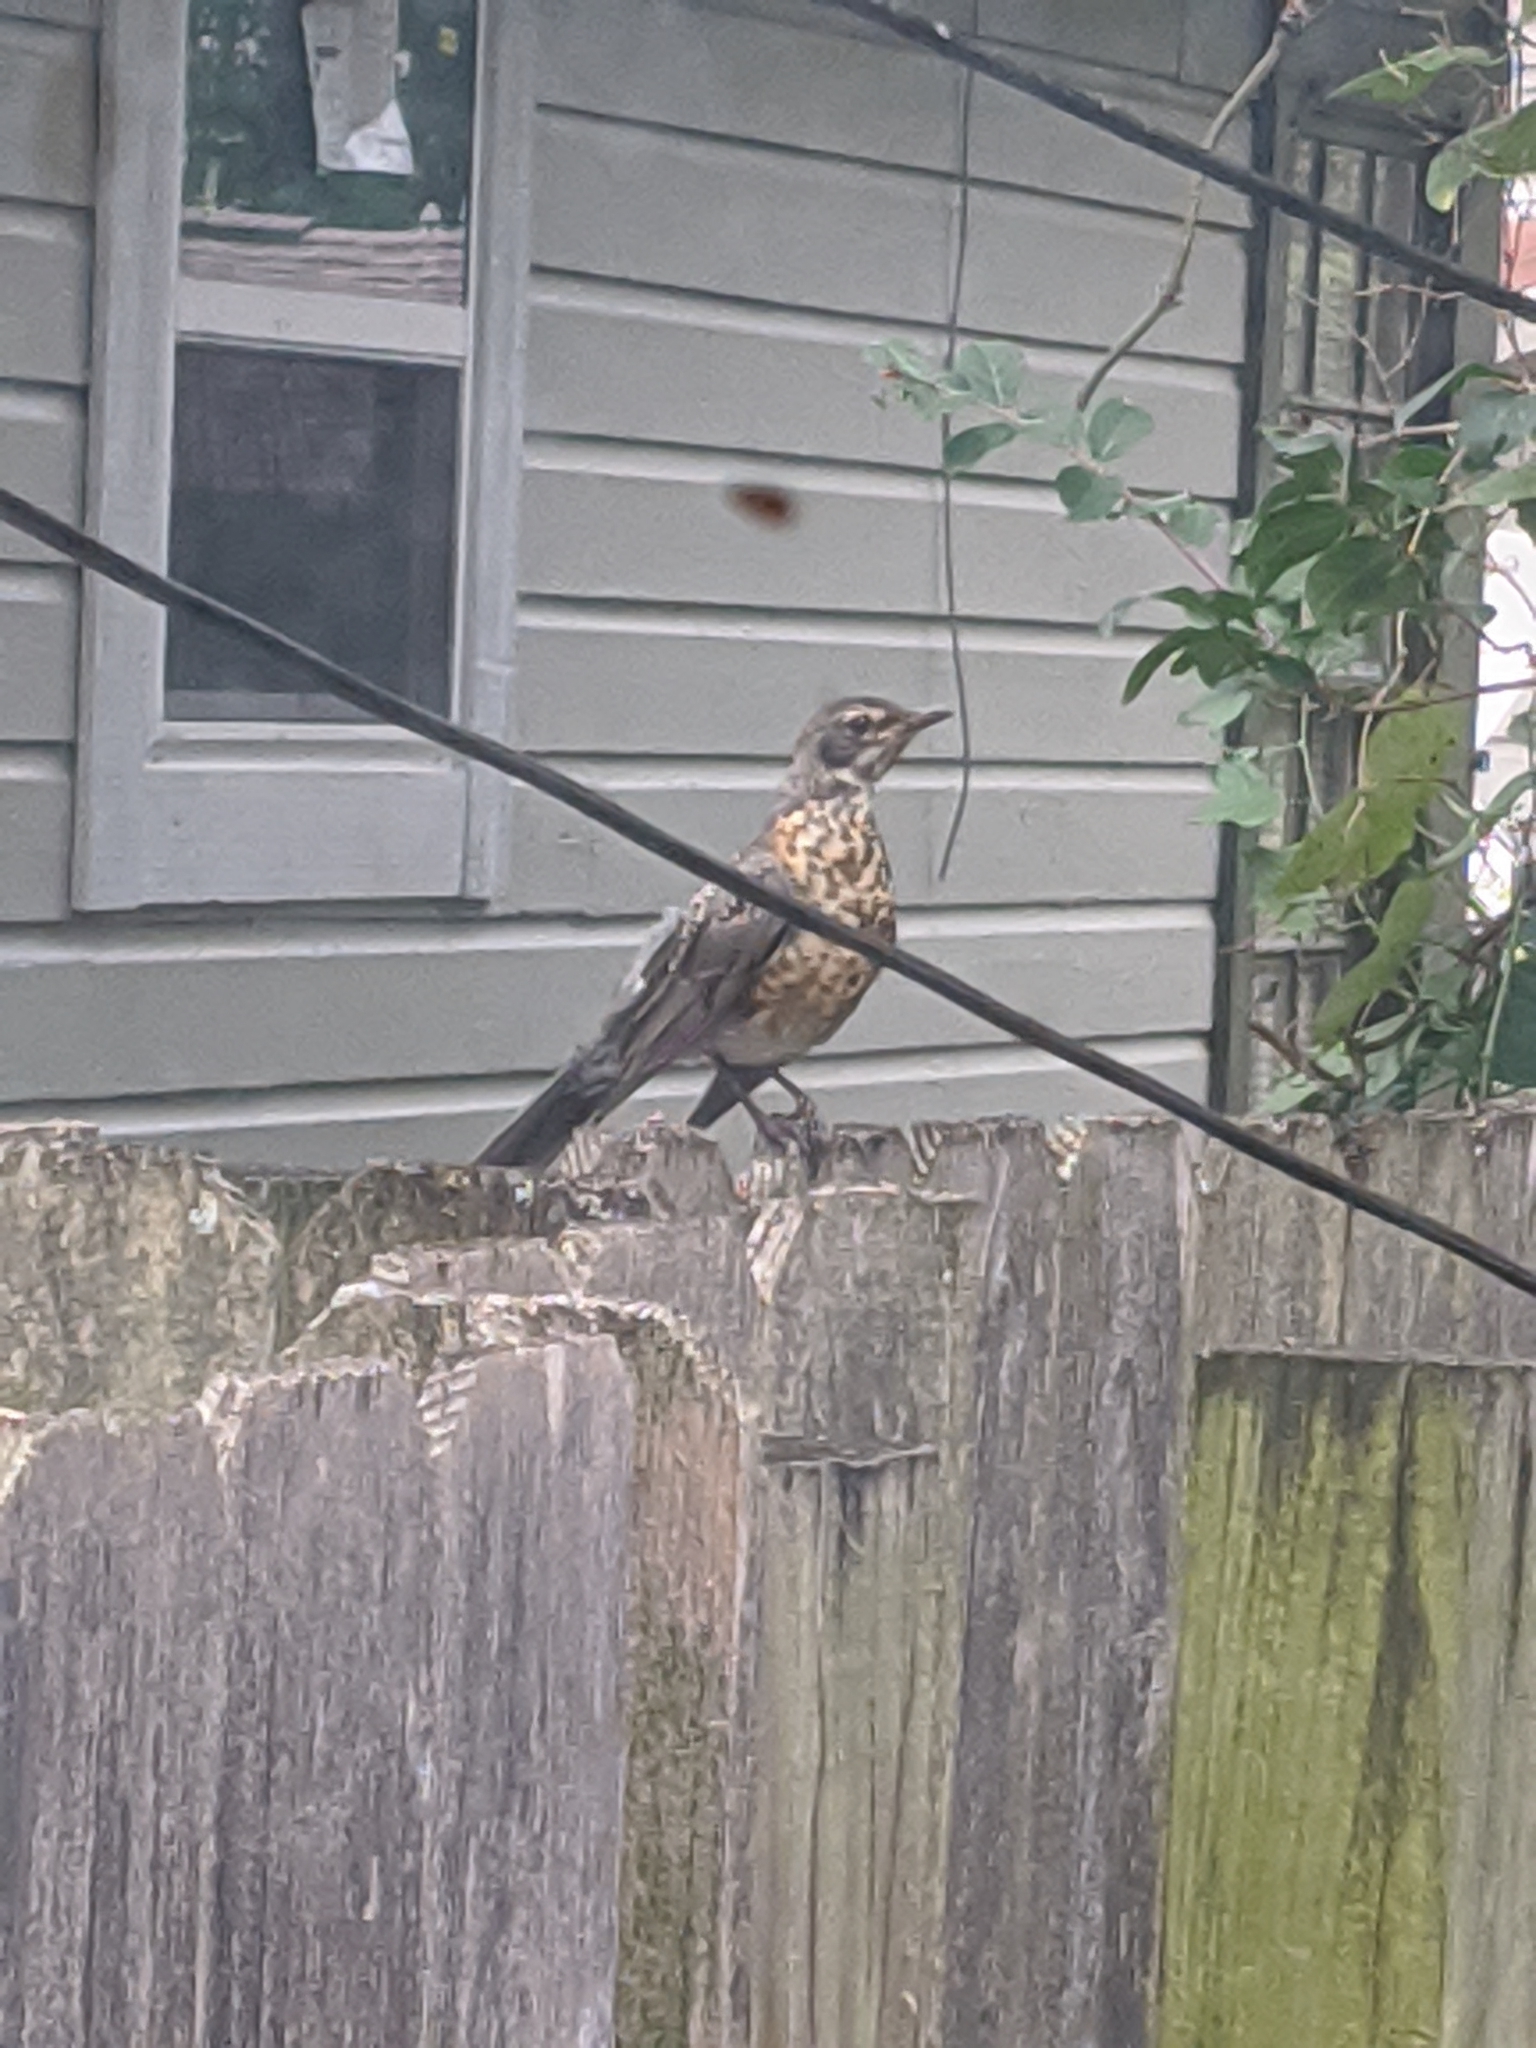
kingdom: Animalia
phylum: Chordata
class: Aves
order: Passeriformes
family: Turdidae
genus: Turdus
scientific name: Turdus migratorius
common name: American robin
